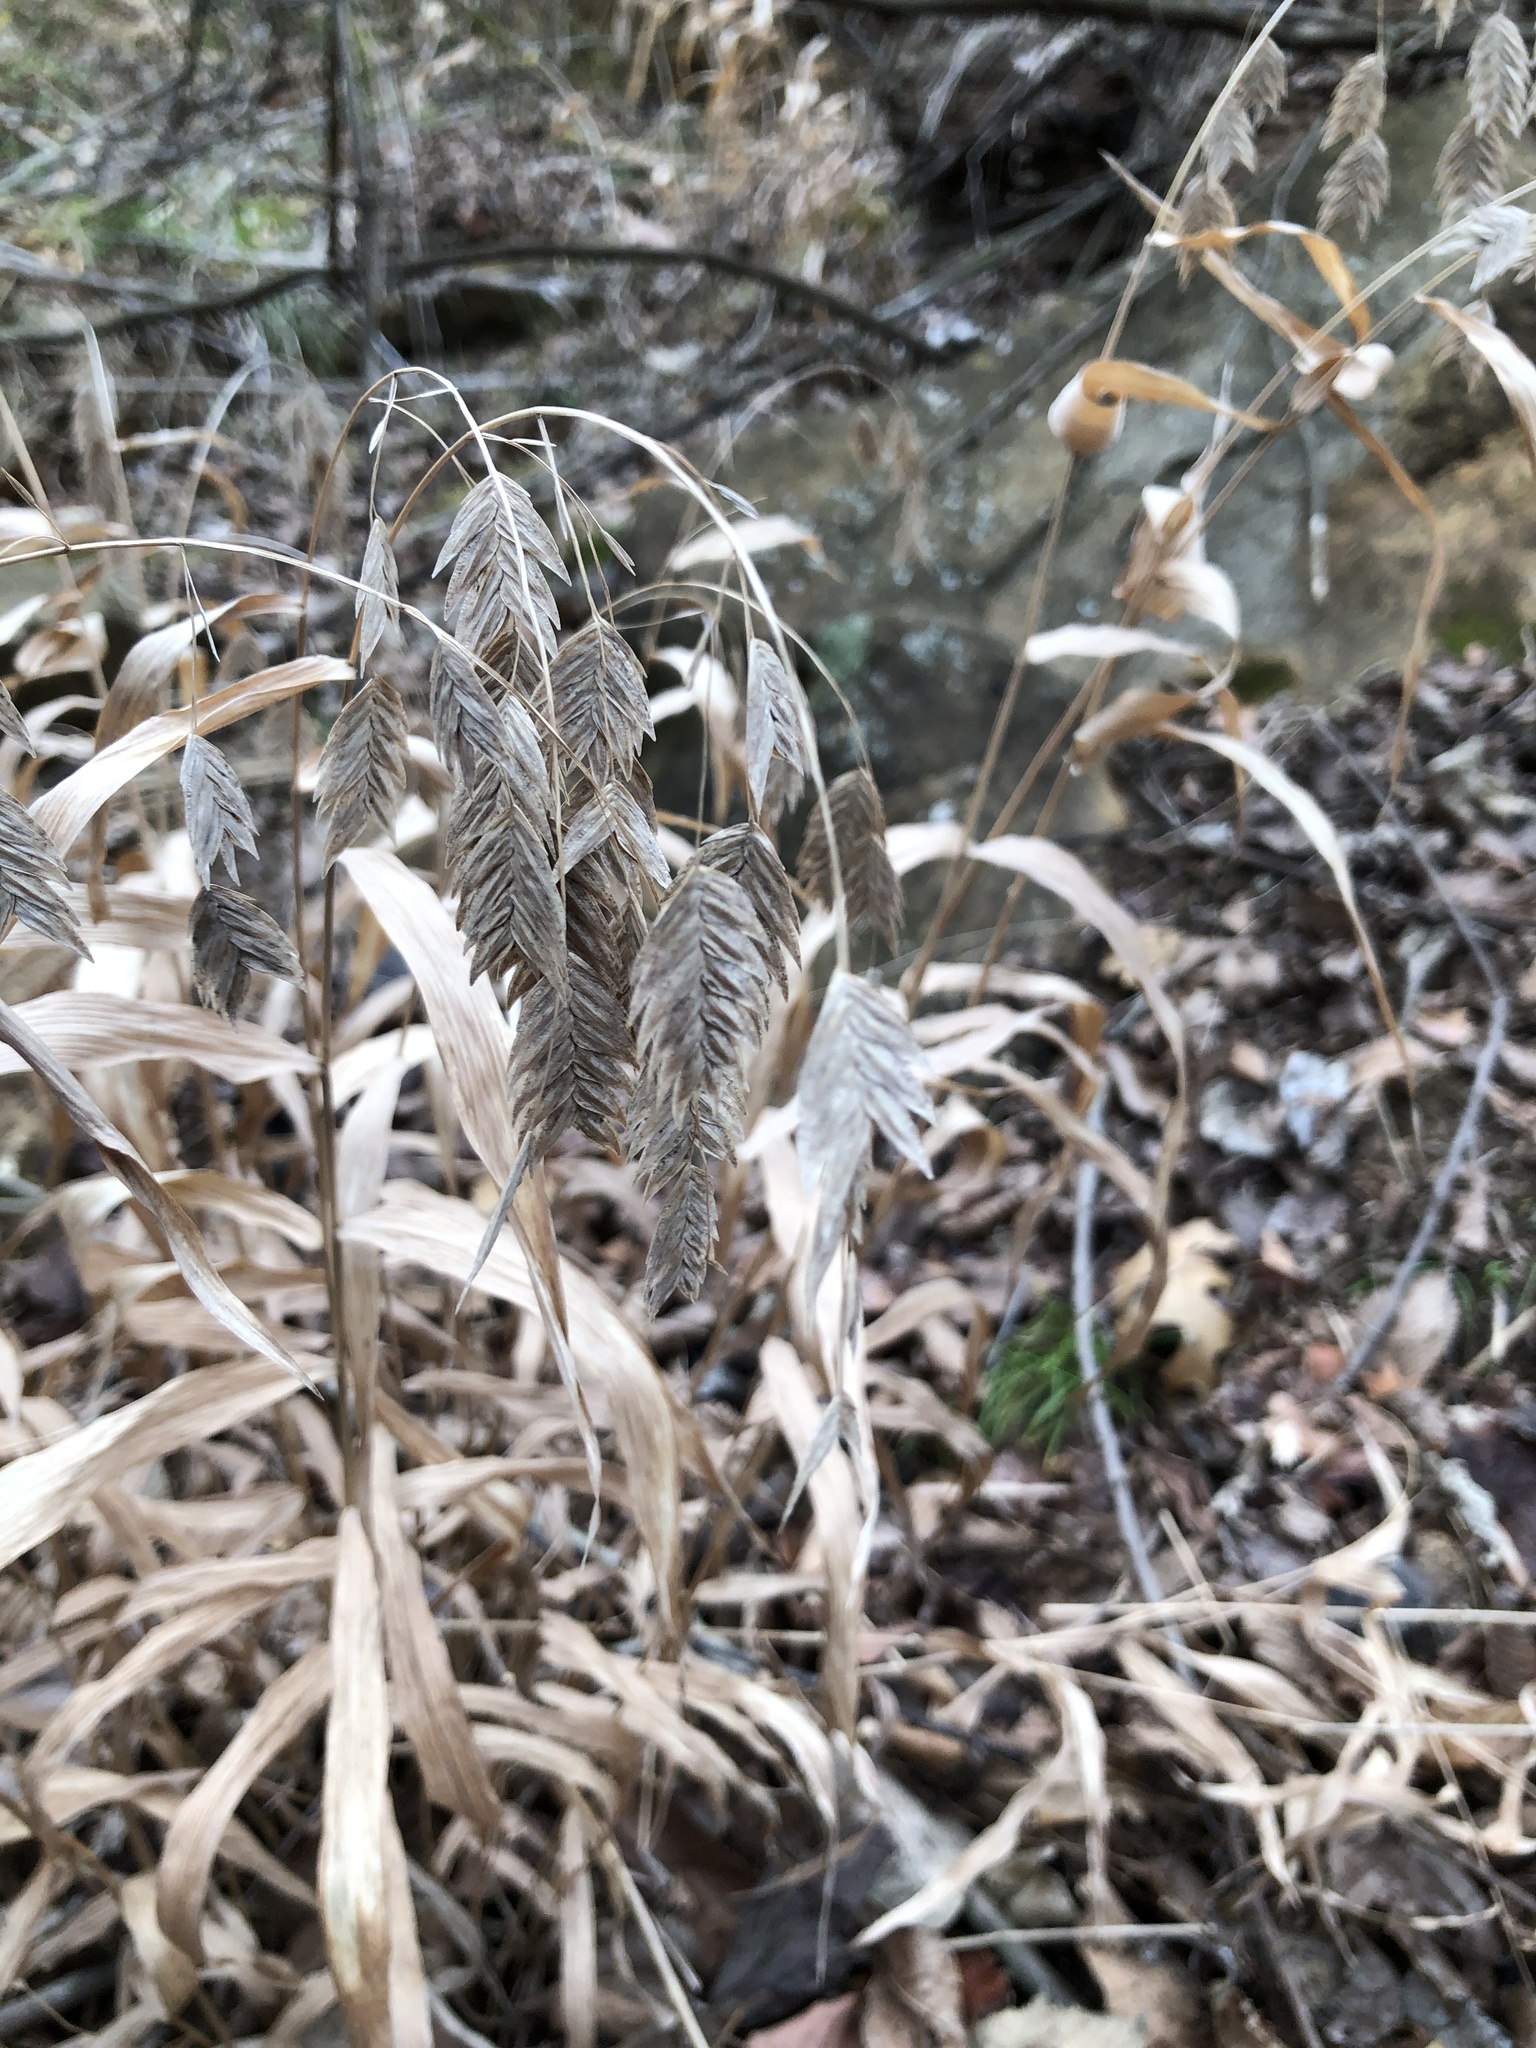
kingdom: Plantae
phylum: Tracheophyta
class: Liliopsida
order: Poales
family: Poaceae
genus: Chasmanthium
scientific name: Chasmanthium latifolium
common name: Broad-leaved chasmanthium
